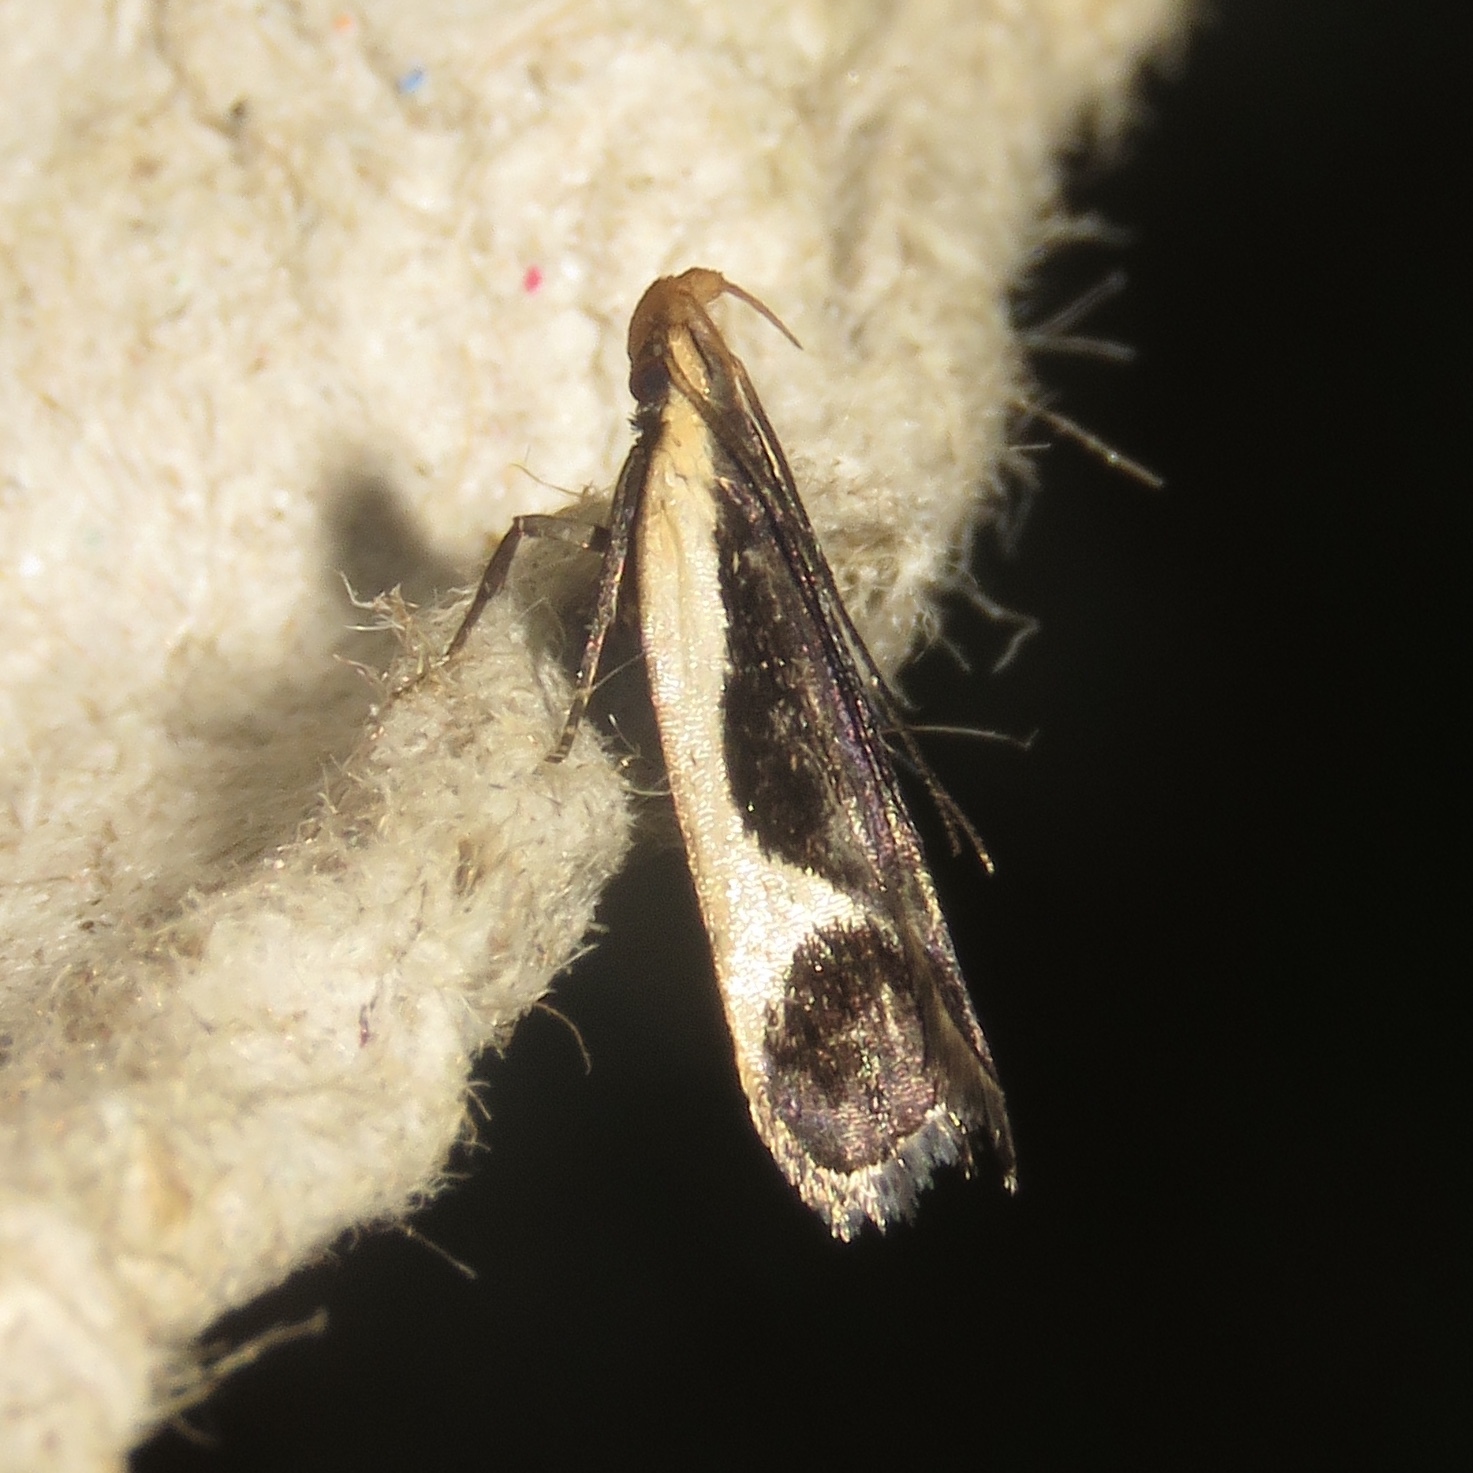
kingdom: Animalia
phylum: Arthropoda
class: Insecta
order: Lepidoptera
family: Gelechiidae
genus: Dichomeris
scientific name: Dichomeris flavocostella
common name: Cream-edged dichomeris moth
